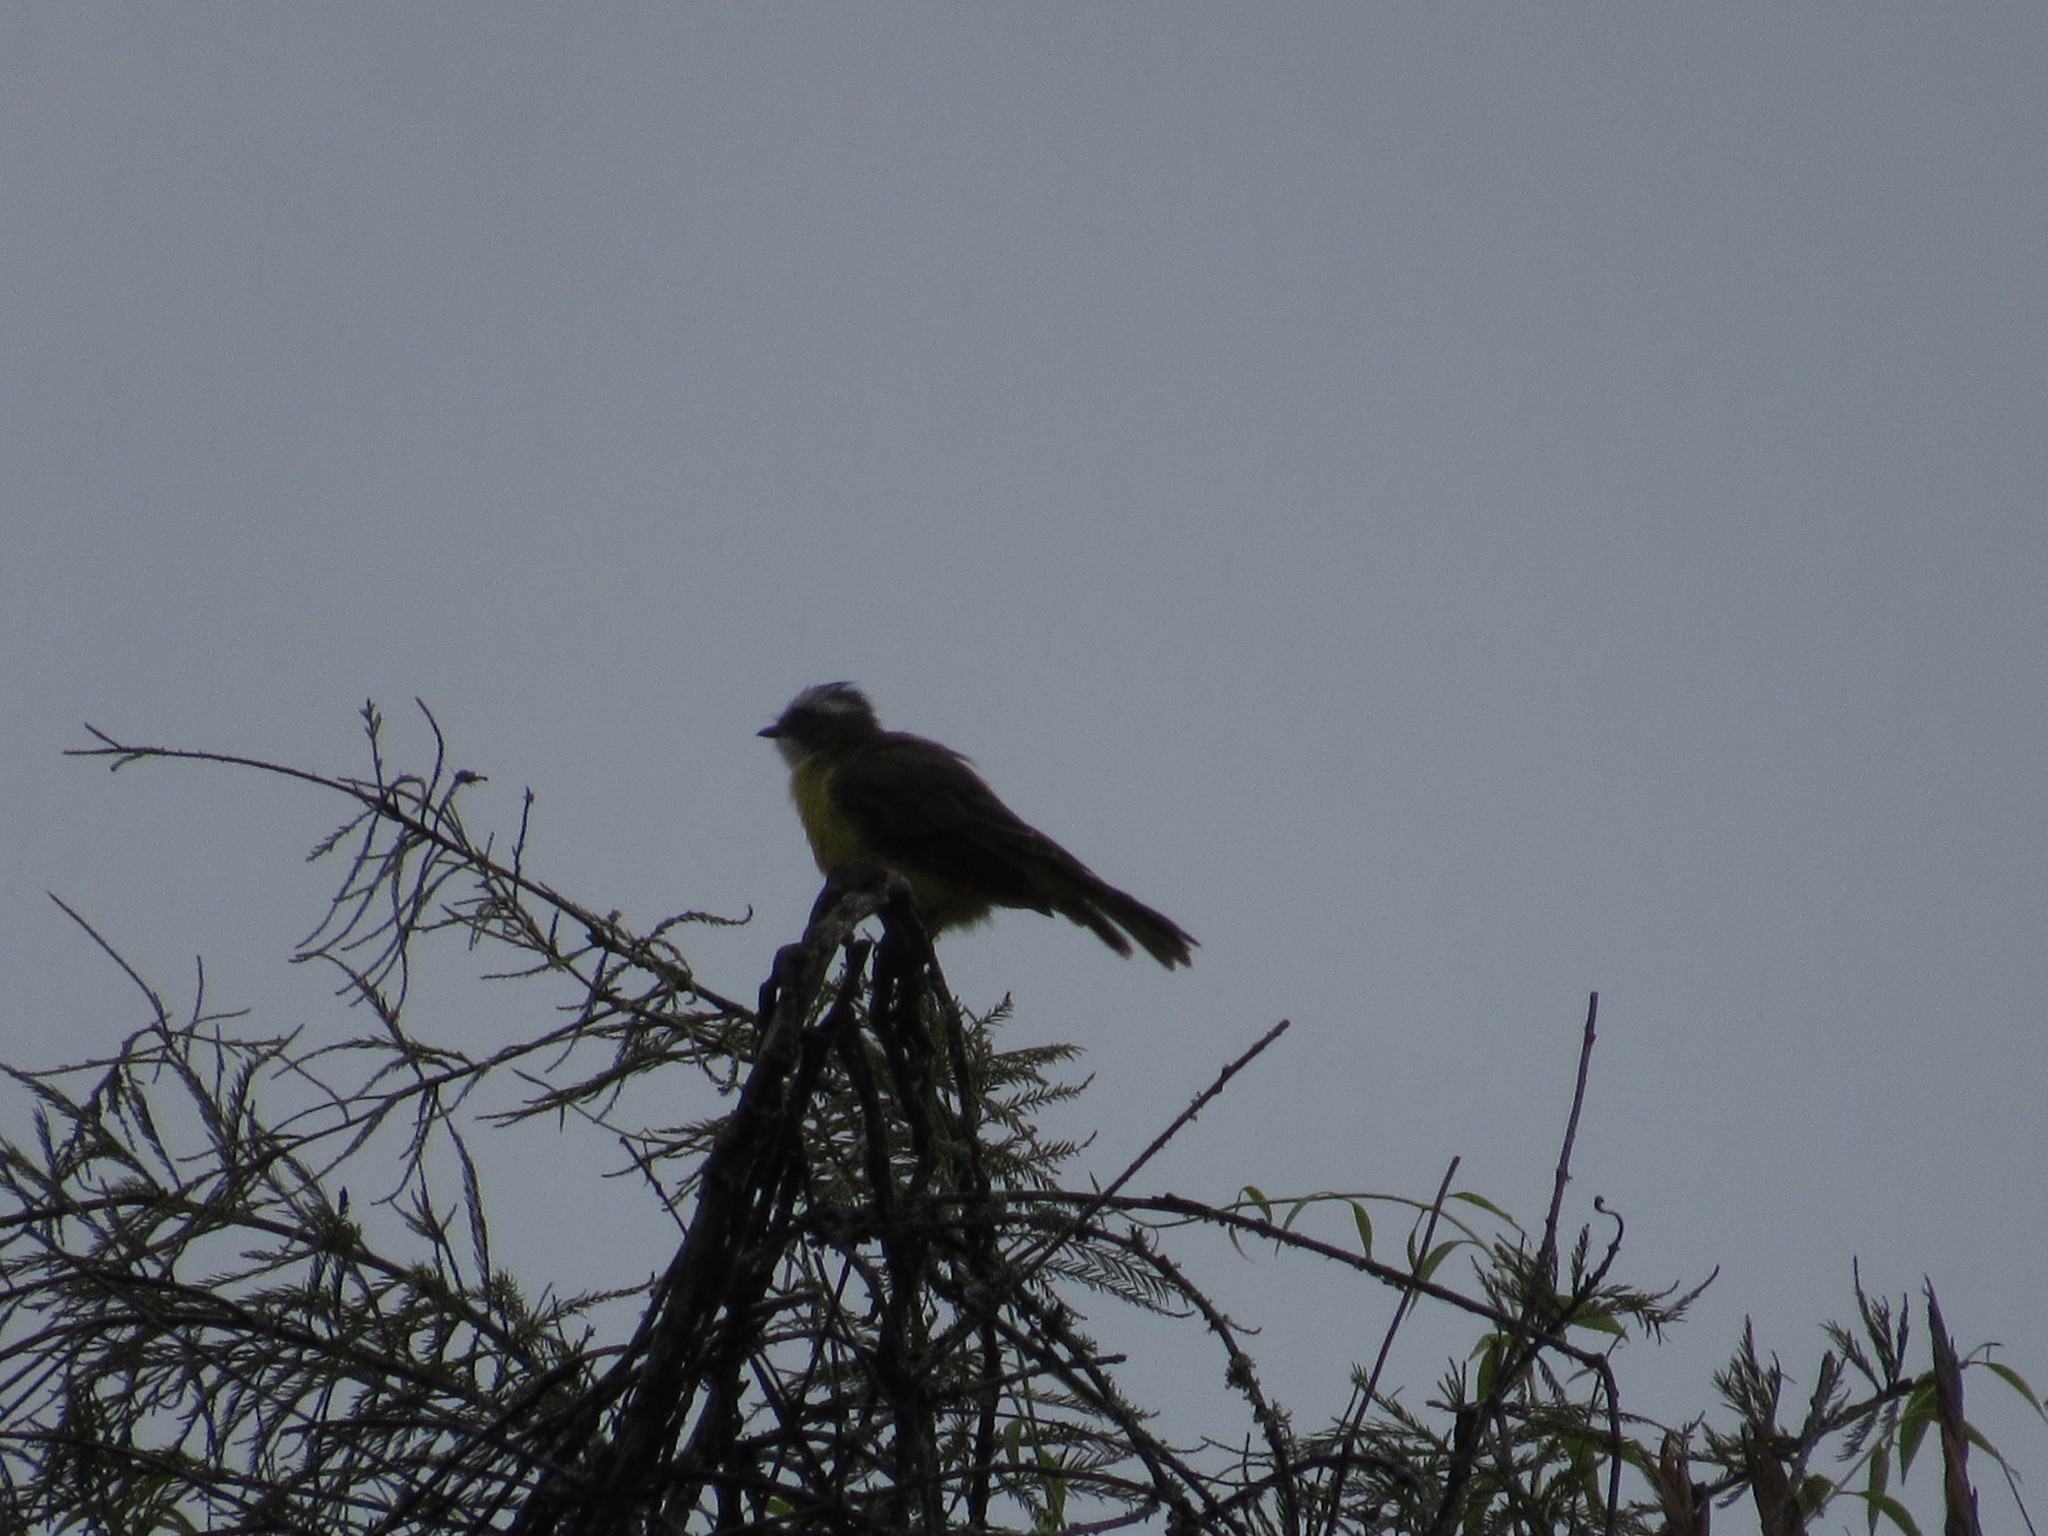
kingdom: Animalia
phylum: Chordata
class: Aves
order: Passeriformes
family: Tyrannidae
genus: Myiozetetes
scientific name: Myiozetetes similis
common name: Social flycatcher
